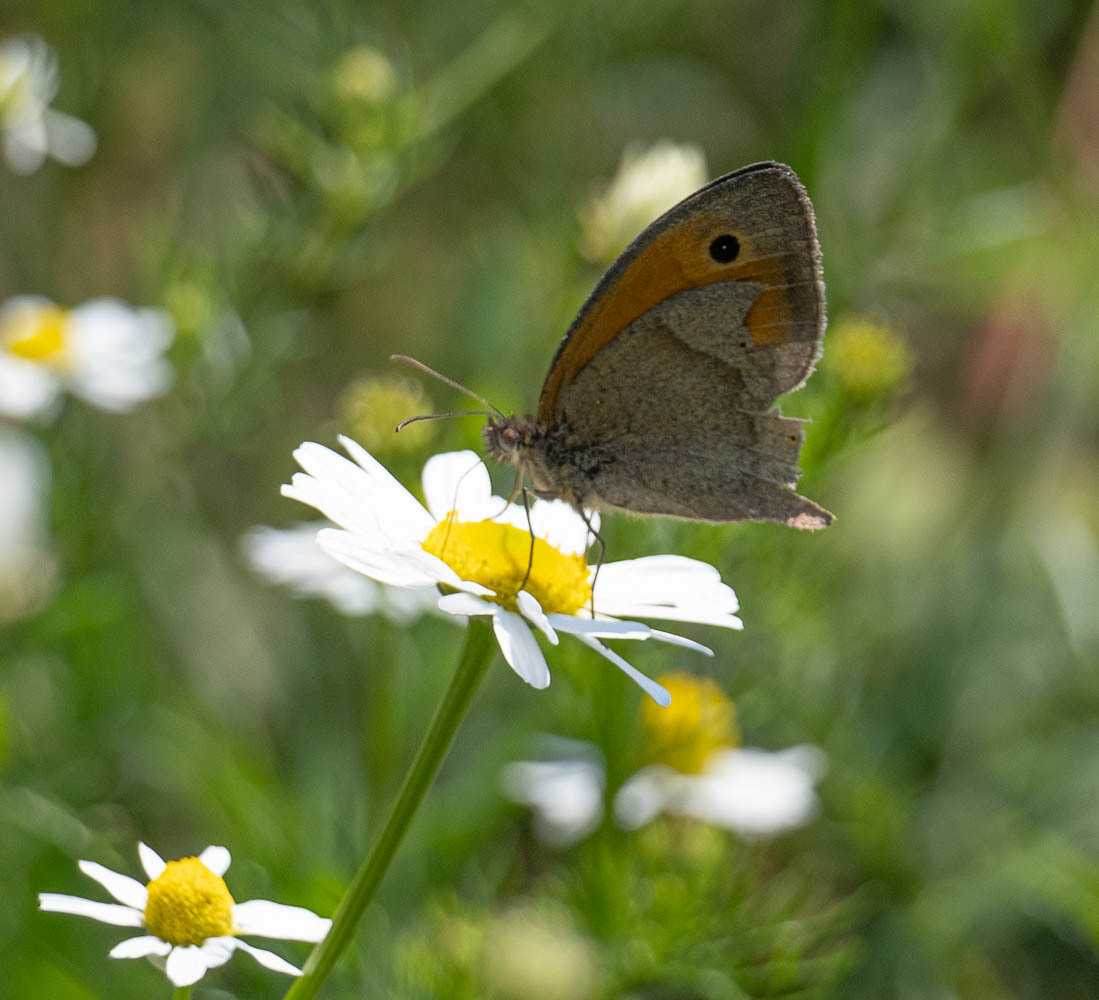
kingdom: Animalia
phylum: Arthropoda
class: Insecta
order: Lepidoptera
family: Nymphalidae
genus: Maniola
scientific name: Maniola jurtina
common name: Meadow brown
